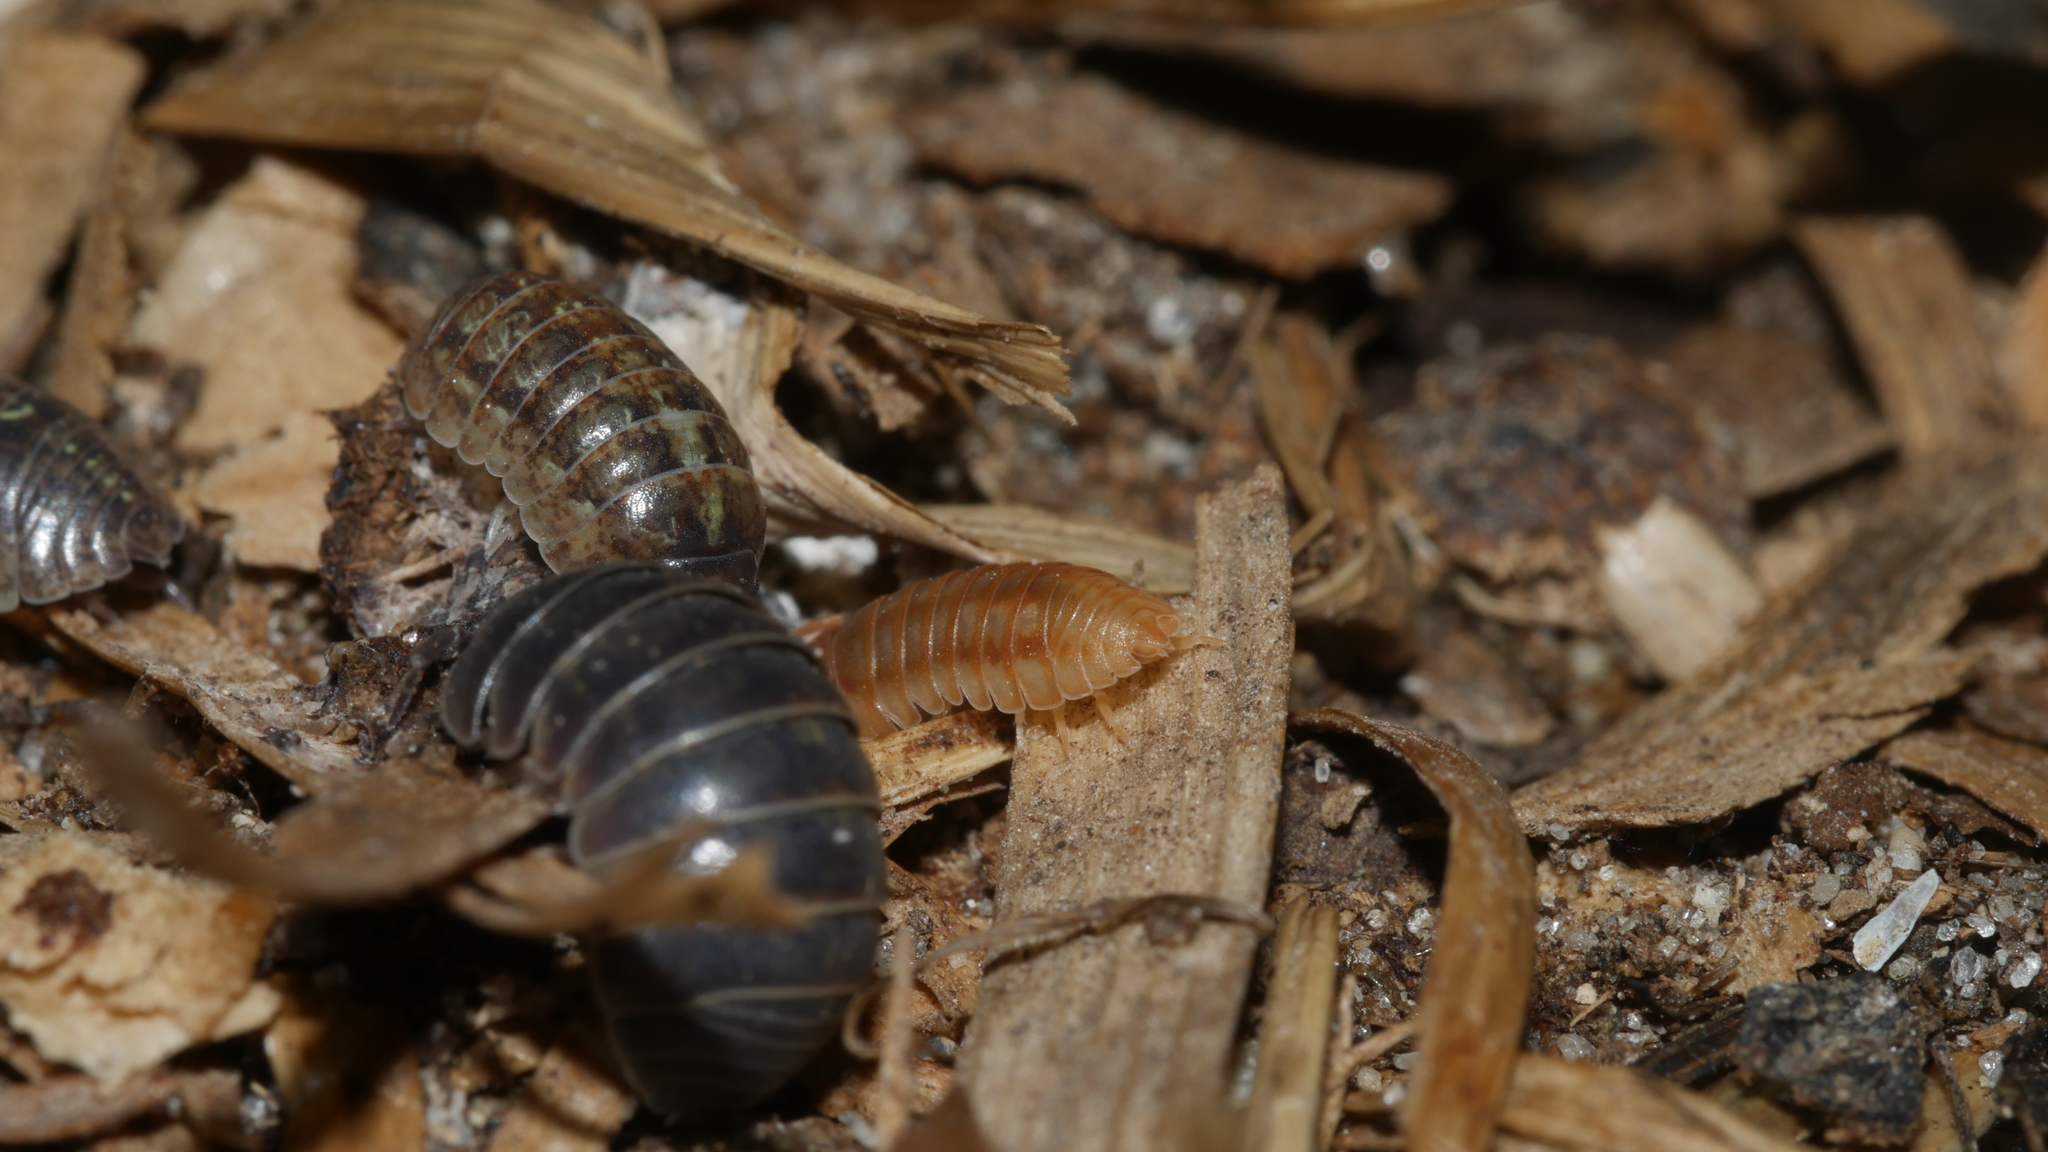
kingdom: Animalia
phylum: Arthropoda
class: Malacostraca
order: Isopoda
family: Armadillidiidae
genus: Armadillidium
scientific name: Armadillidium vulgare
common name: Common pill woodlouse
